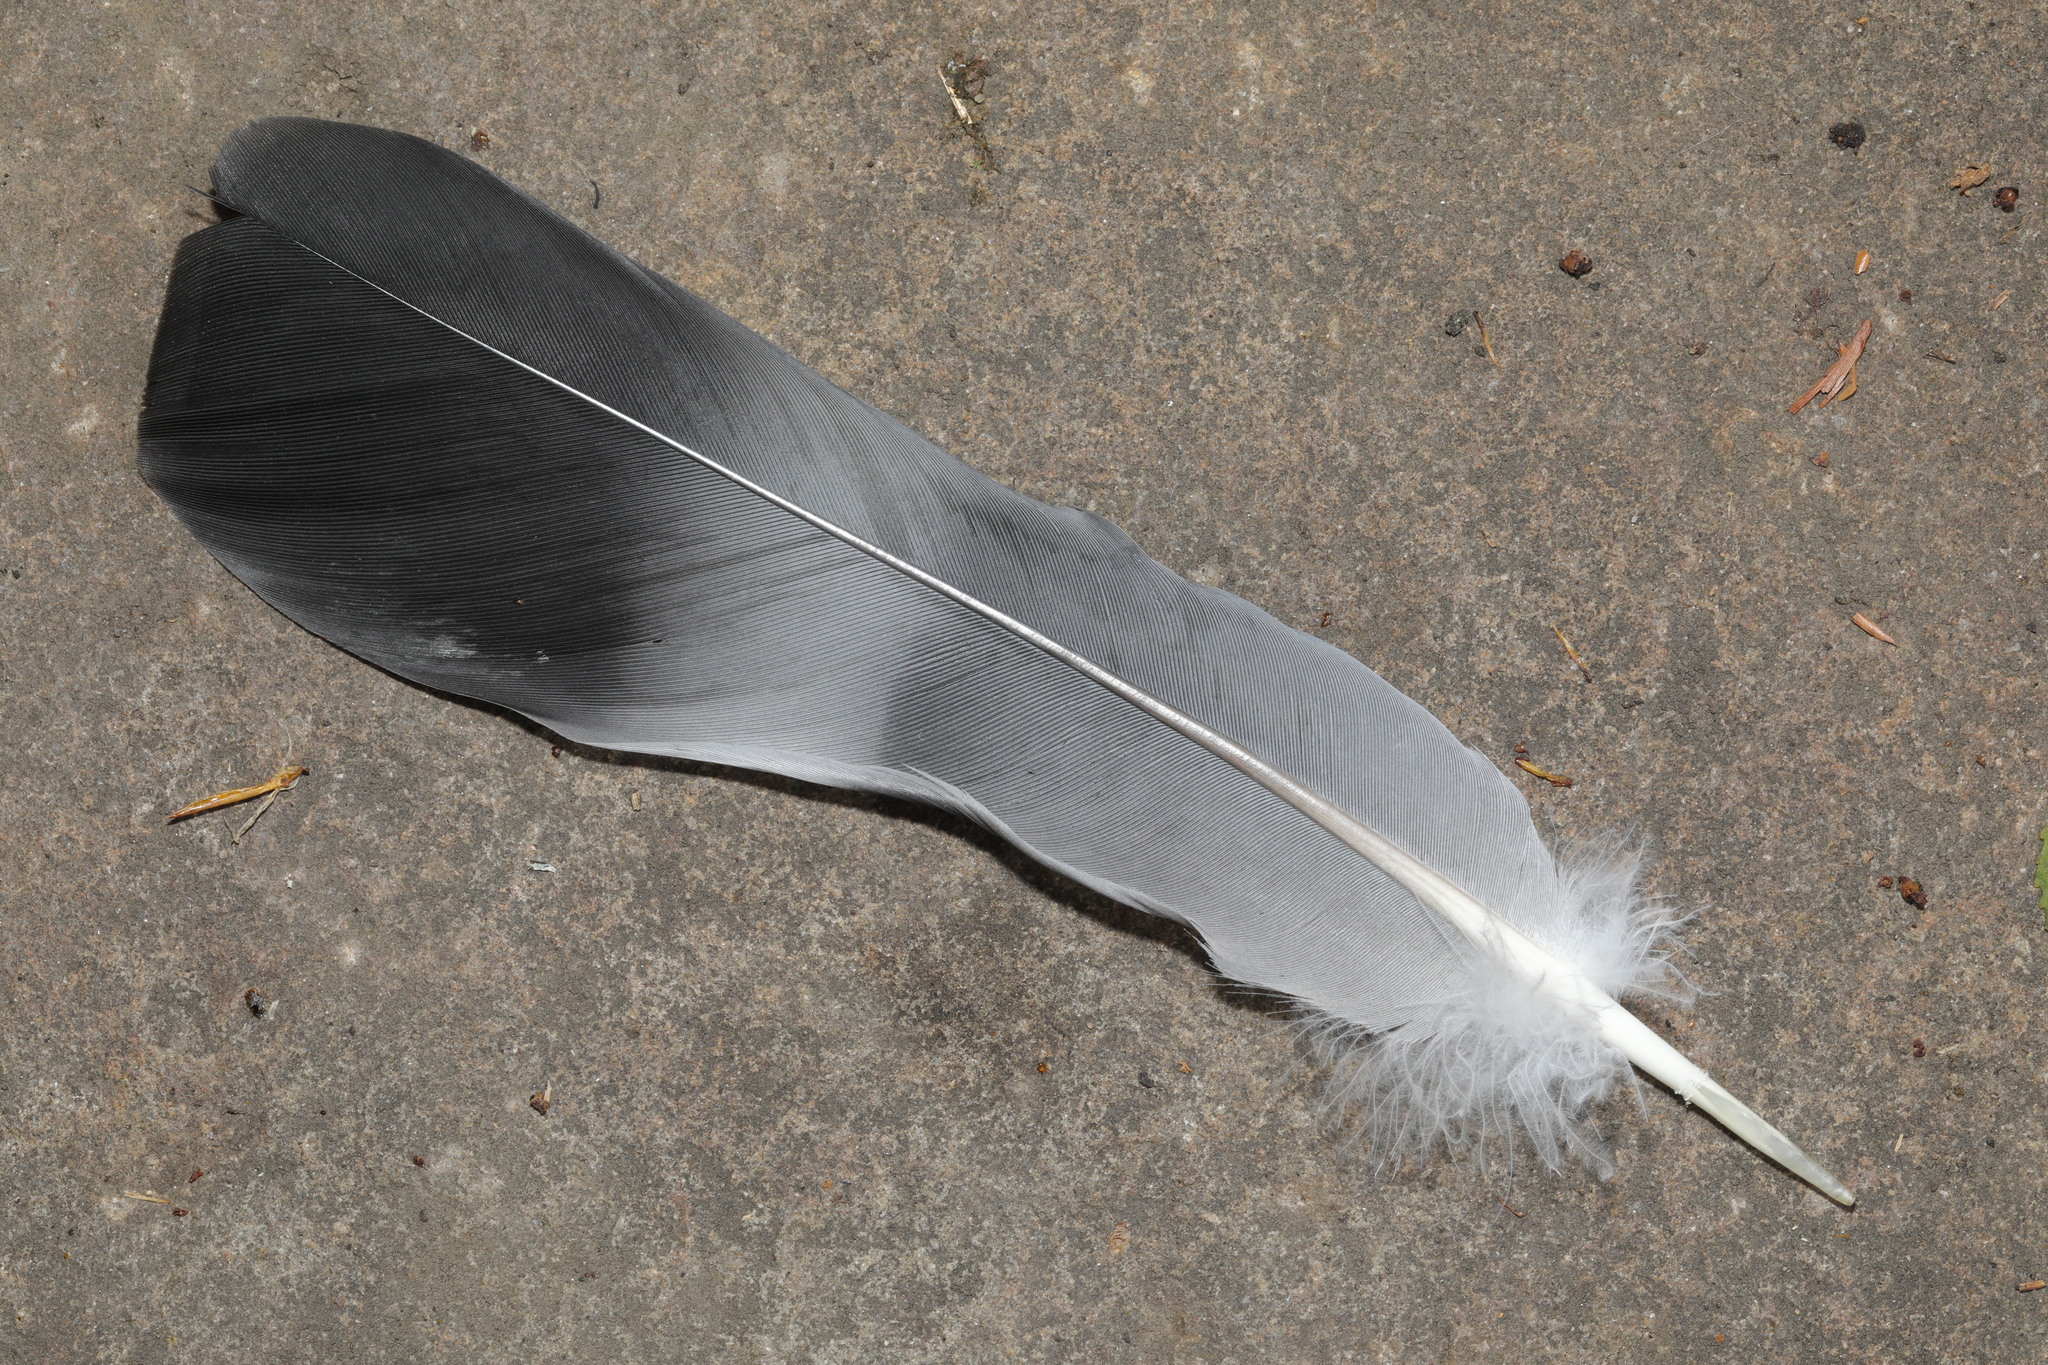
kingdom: Animalia
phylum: Chordata
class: Aves
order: Columbiformes
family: Columbidae
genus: Columba
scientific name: Columba palumbus
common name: Common wood pigeon
